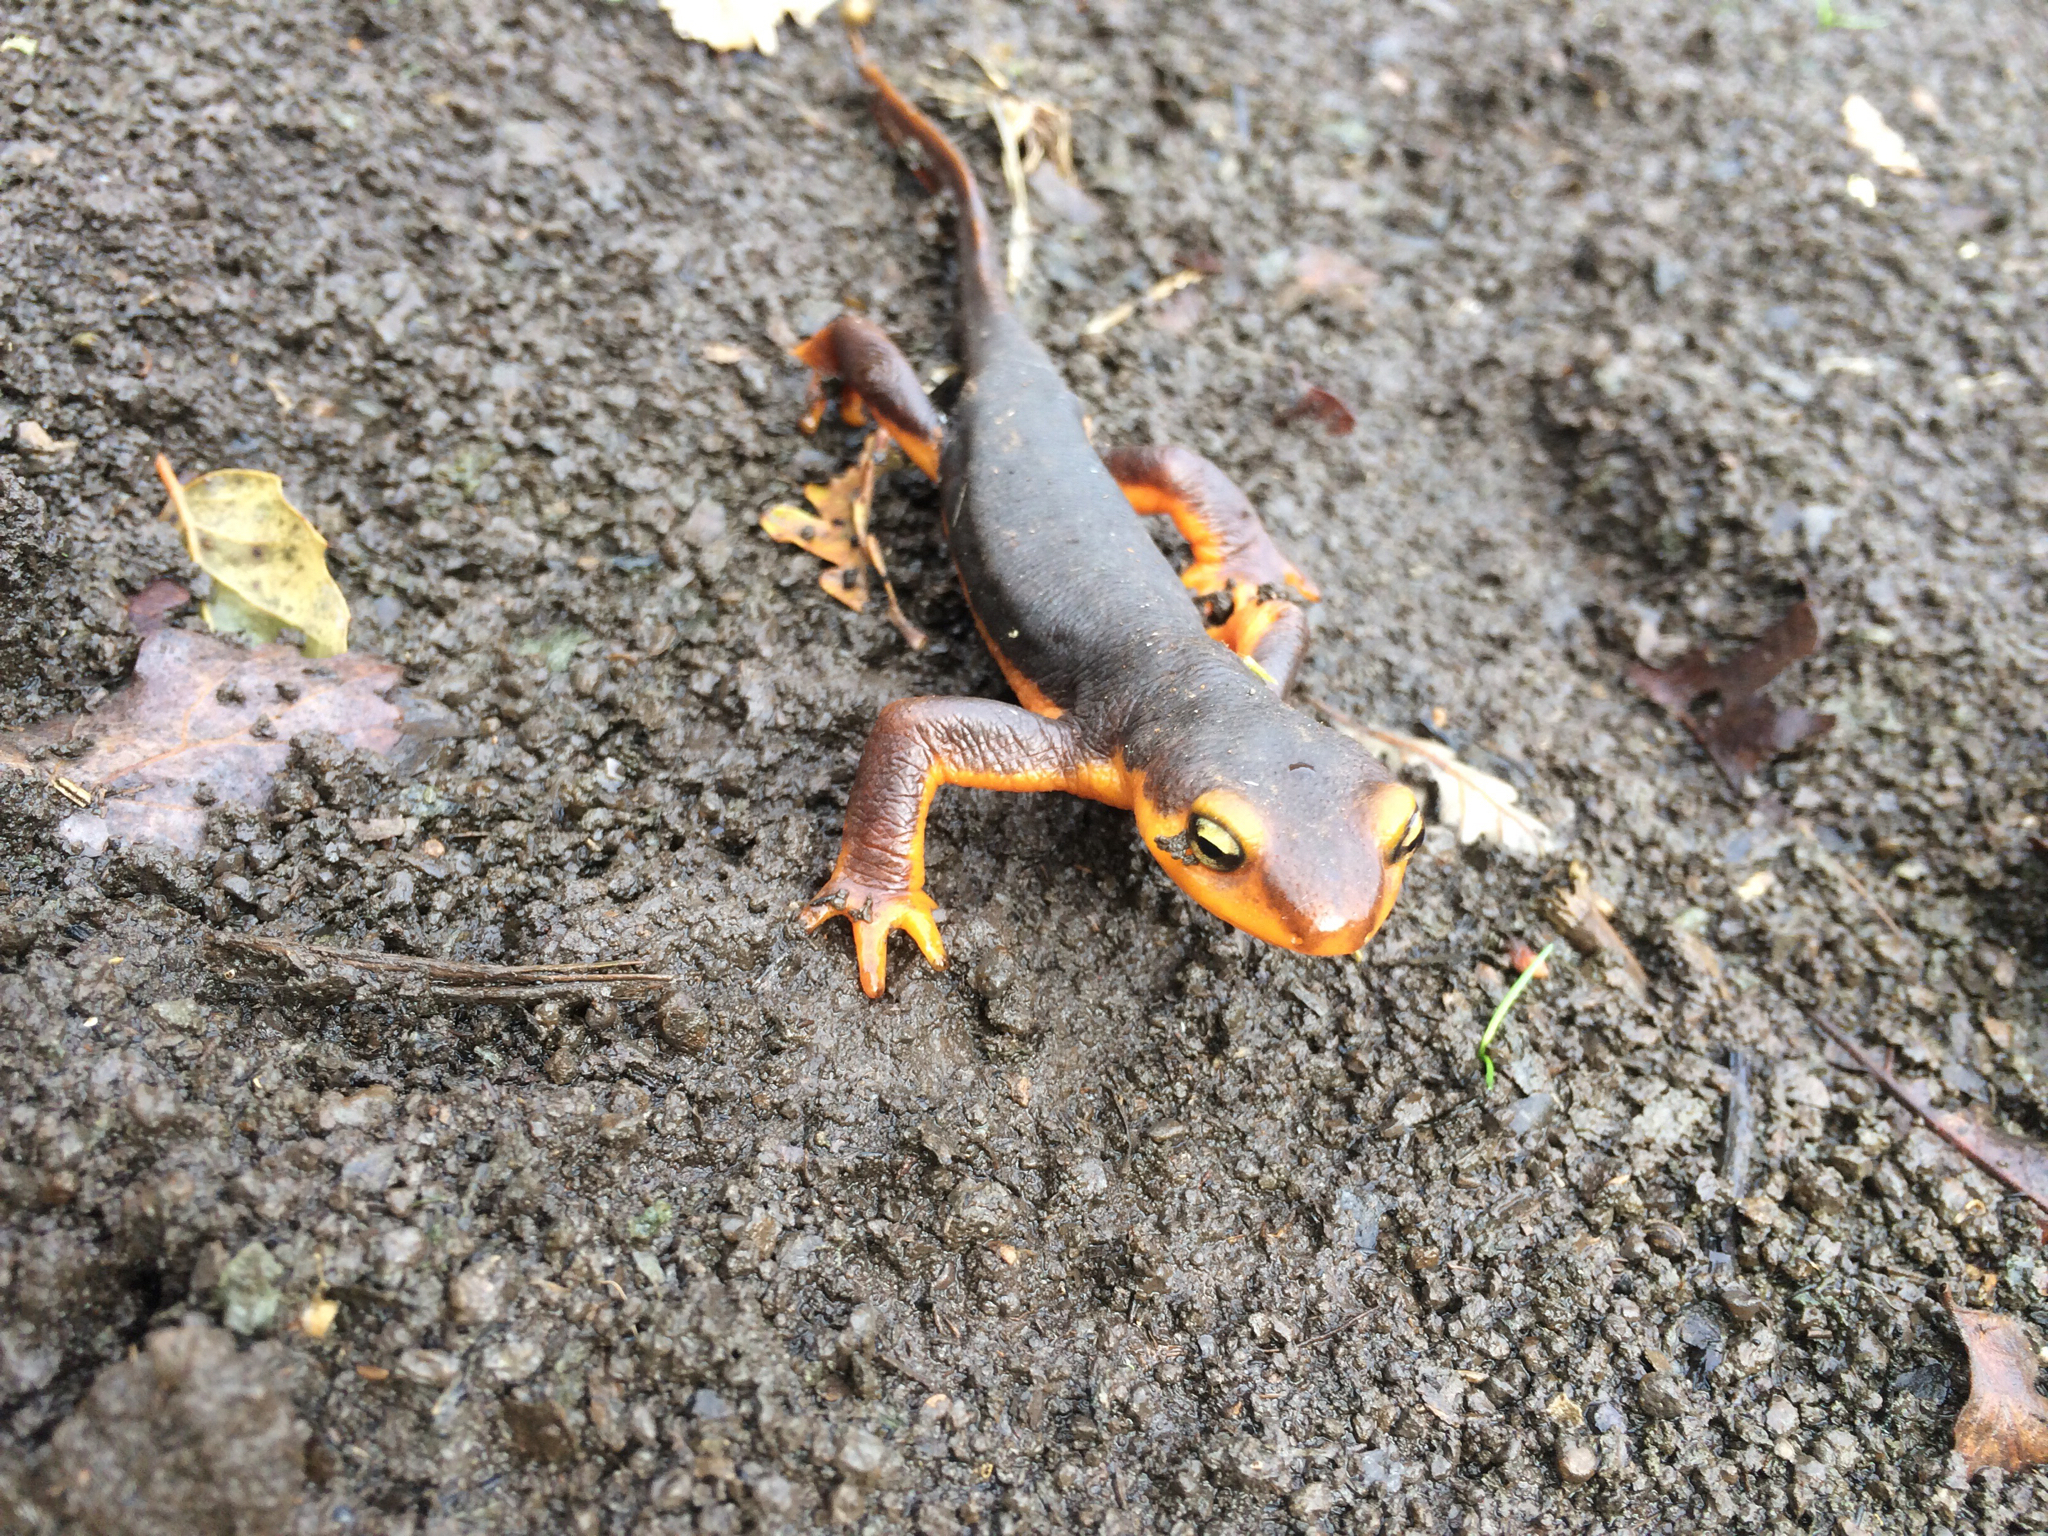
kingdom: Animalia
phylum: Chordata
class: Amphibia
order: Caudata
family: Salamandridae
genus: Taricha
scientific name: Taricha torosa
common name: California newt
